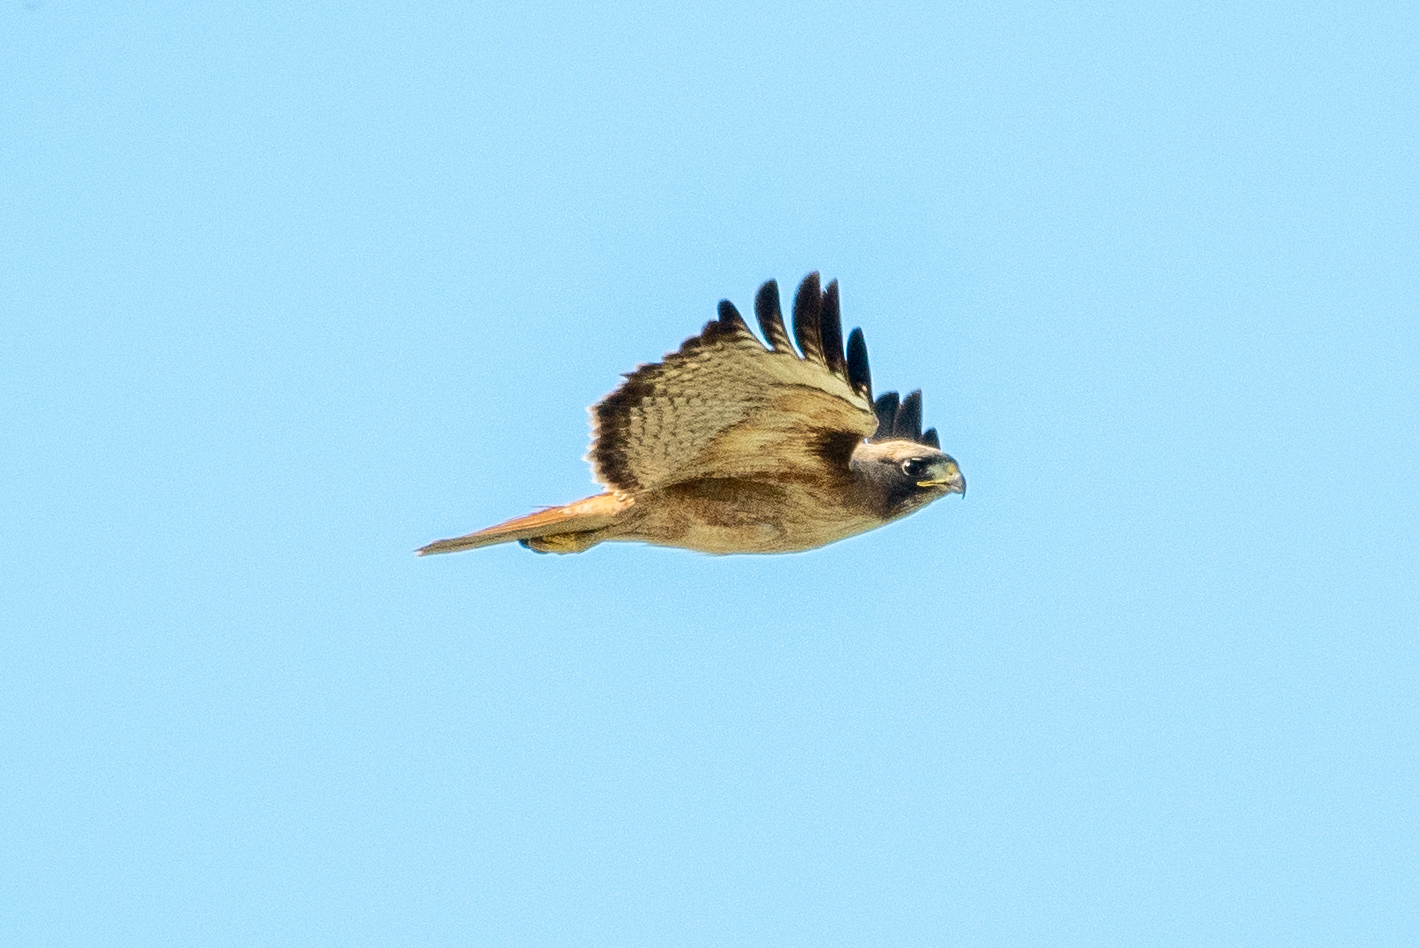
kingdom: Animalia
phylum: Chordata
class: Aves
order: Accipitriformes
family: Accipitridae
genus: Buteo
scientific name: Buteo jamaicensis
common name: Red-tailed hawk
